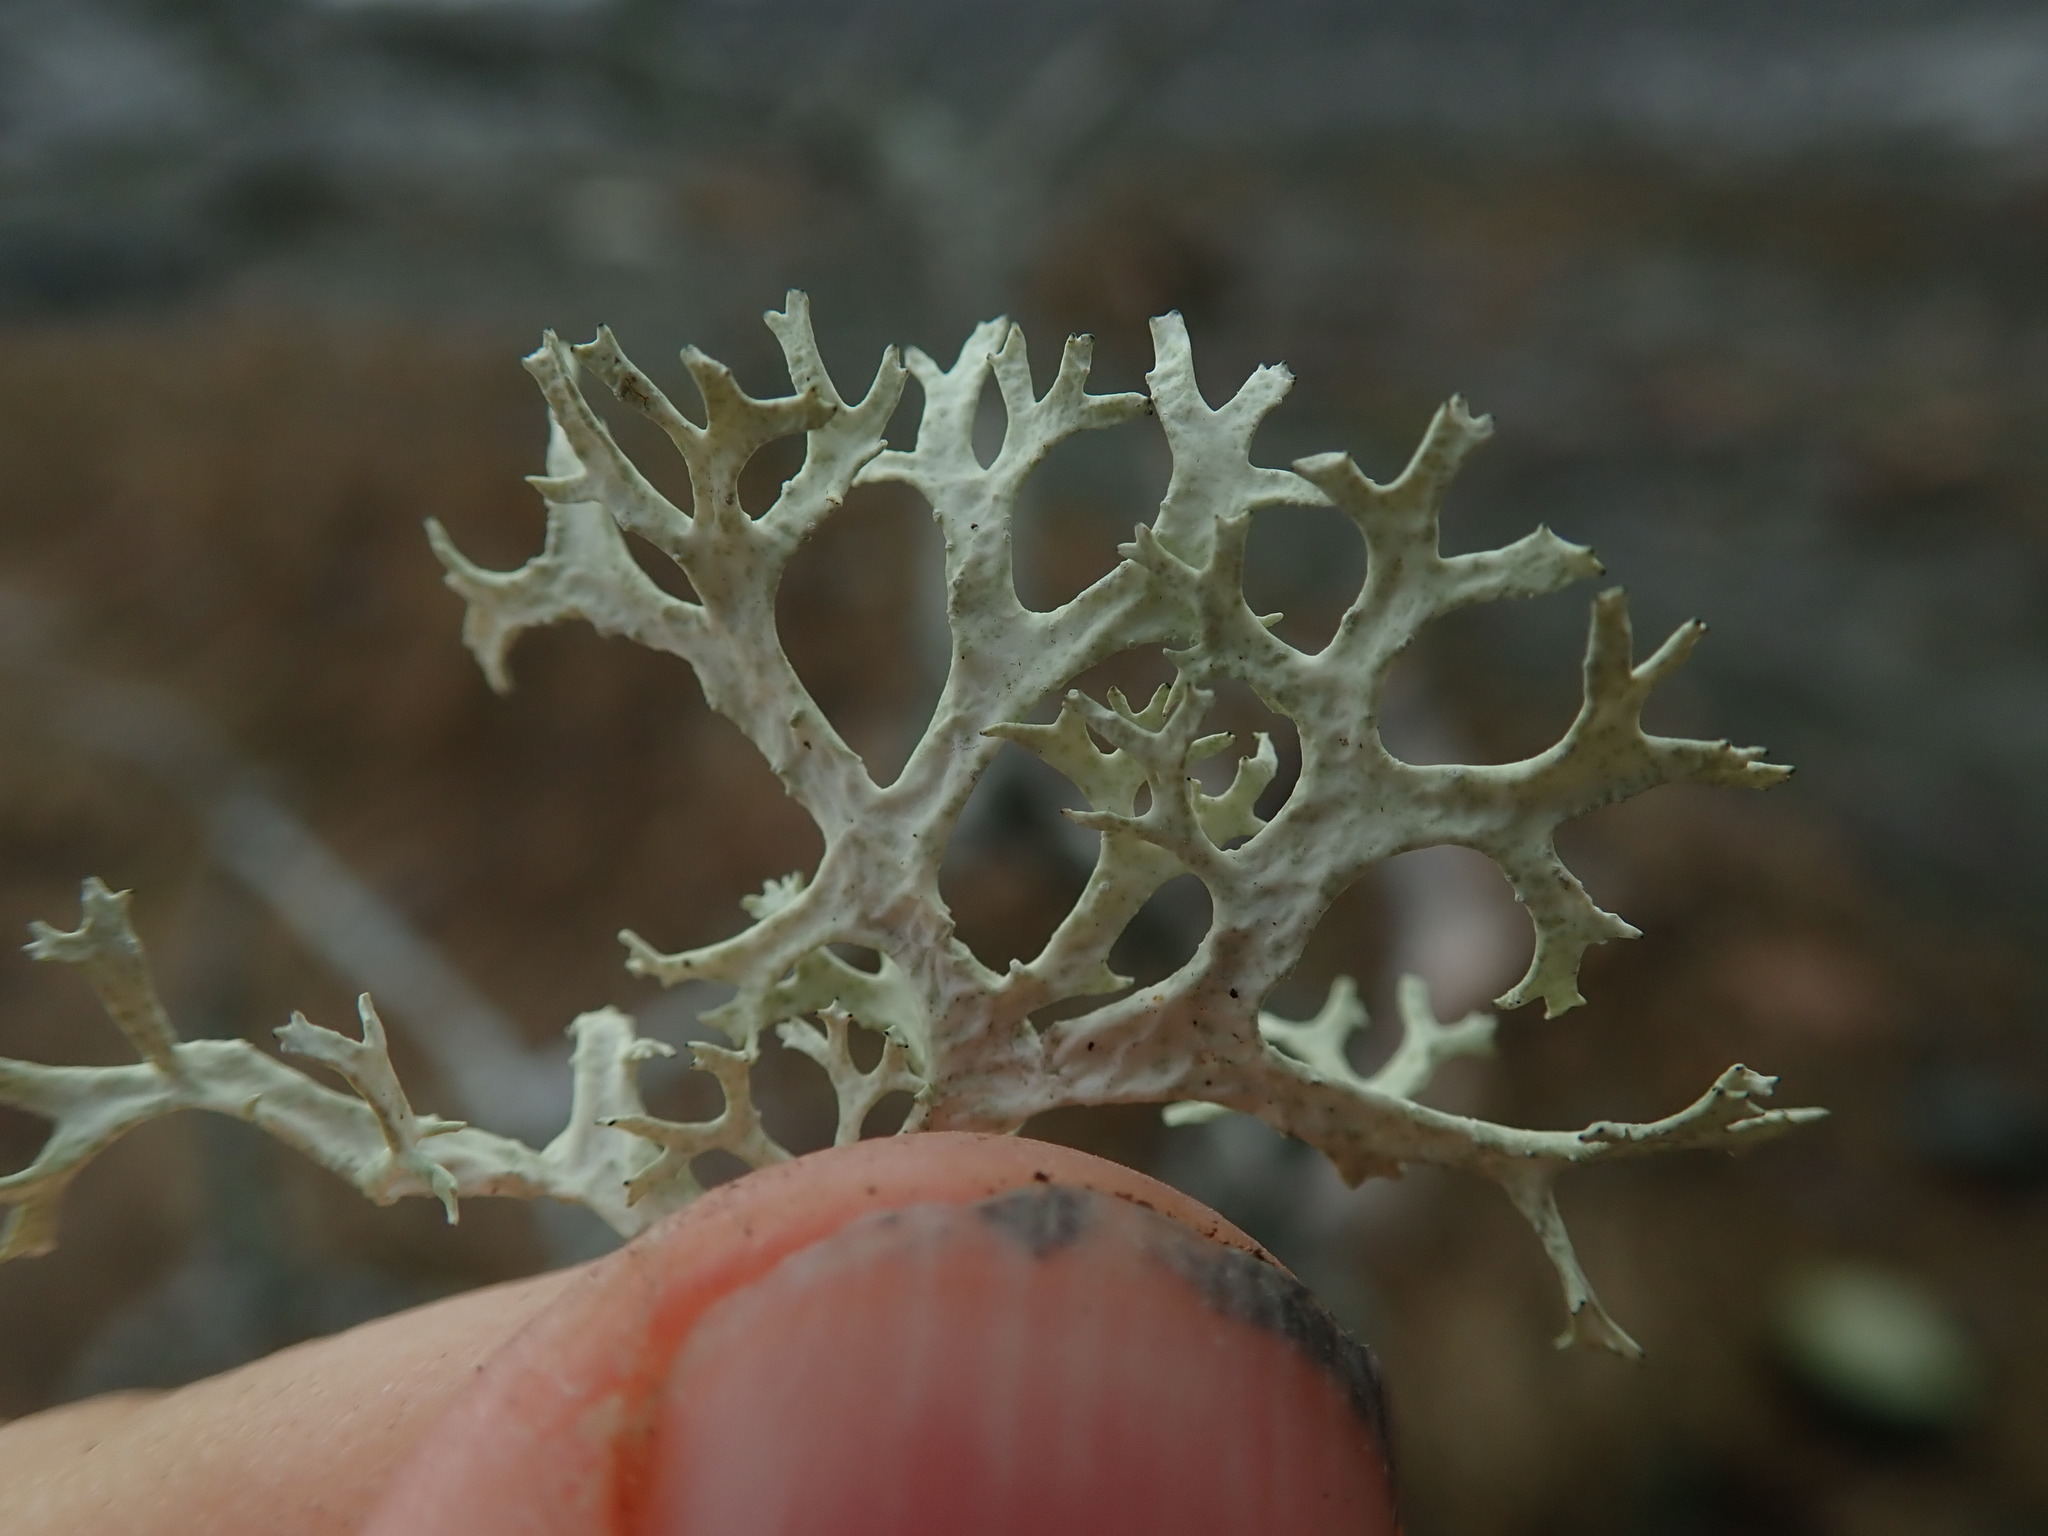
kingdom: Fungi
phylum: Ascomycota
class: Lecanoromycetes
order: Lecanorales
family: Parmeliaceae
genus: Evernia
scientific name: Evernia prunastri
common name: Oak moss
